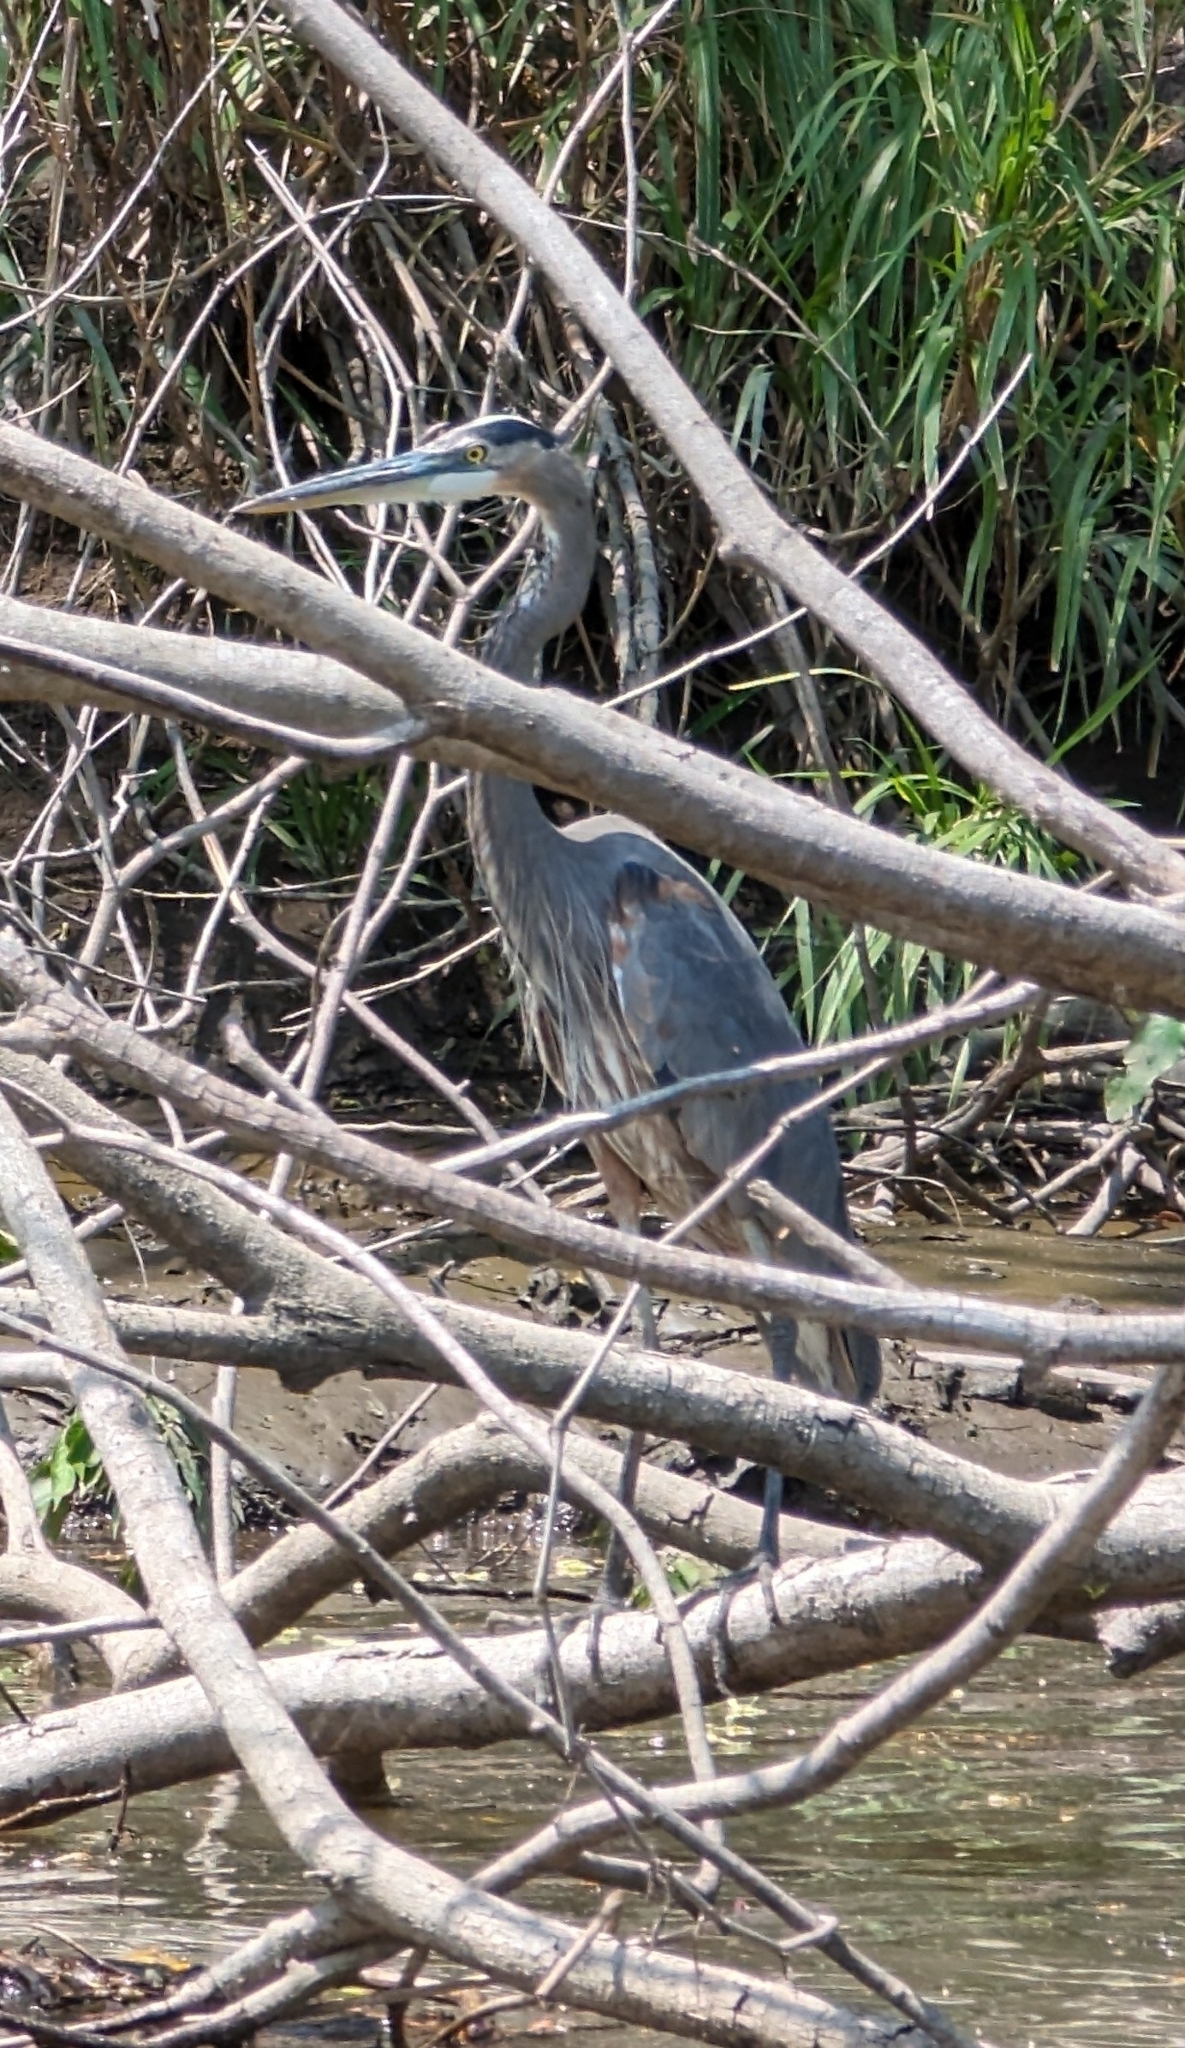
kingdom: Animalia
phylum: Chordata
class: Aves
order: Pelecaniformes
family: Ardeidae
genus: Ardea
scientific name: Ardea herodias
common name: Great blue heron
